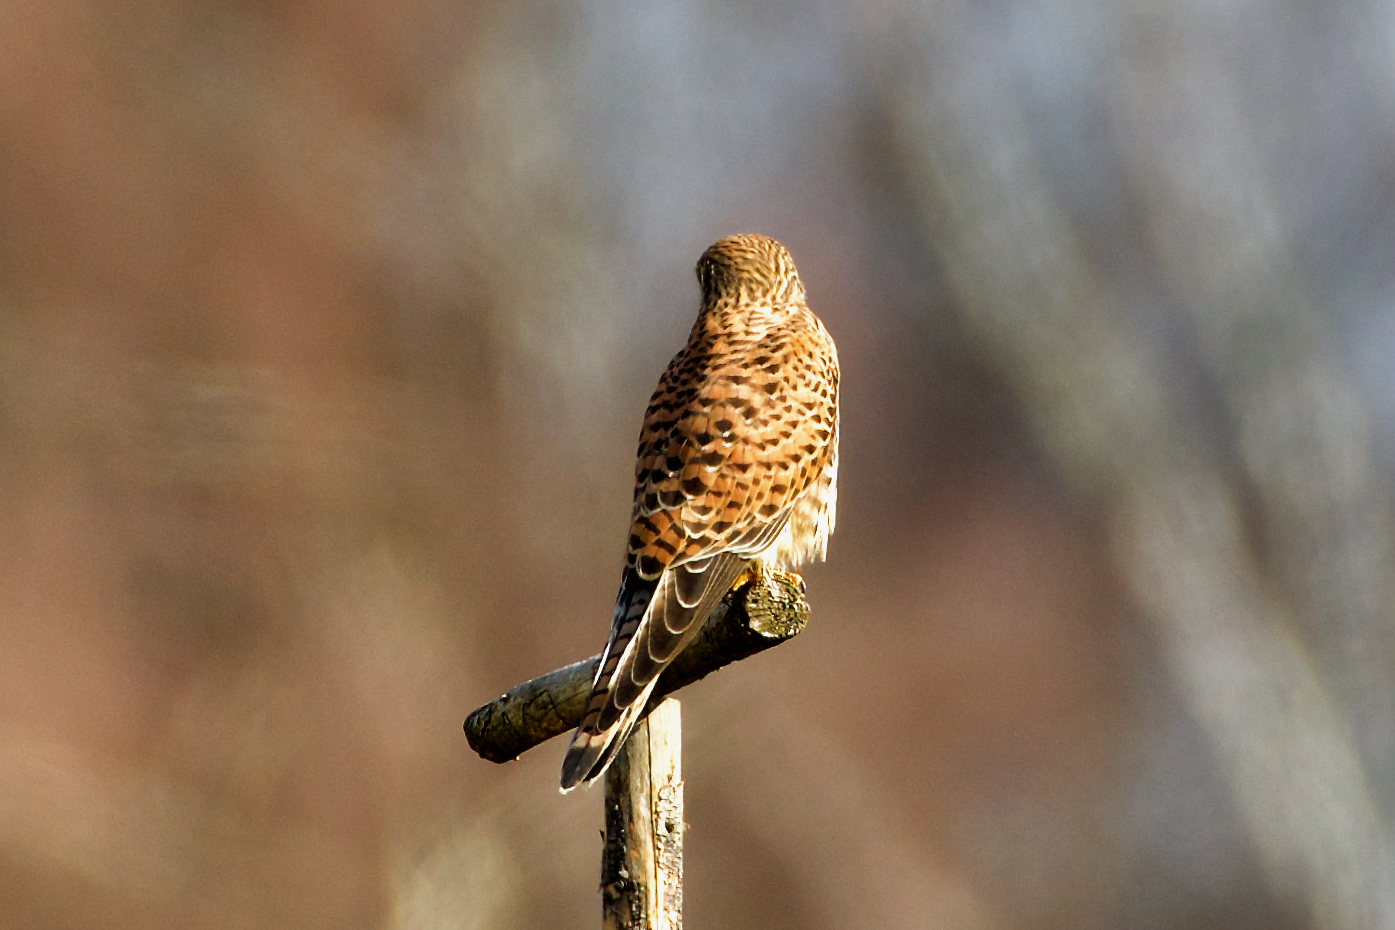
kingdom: Animalia
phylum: Chordata
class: Aves
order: Falconiformes
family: Falconidae
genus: Falco
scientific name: Falco tinnunculus
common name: Common kestrel
